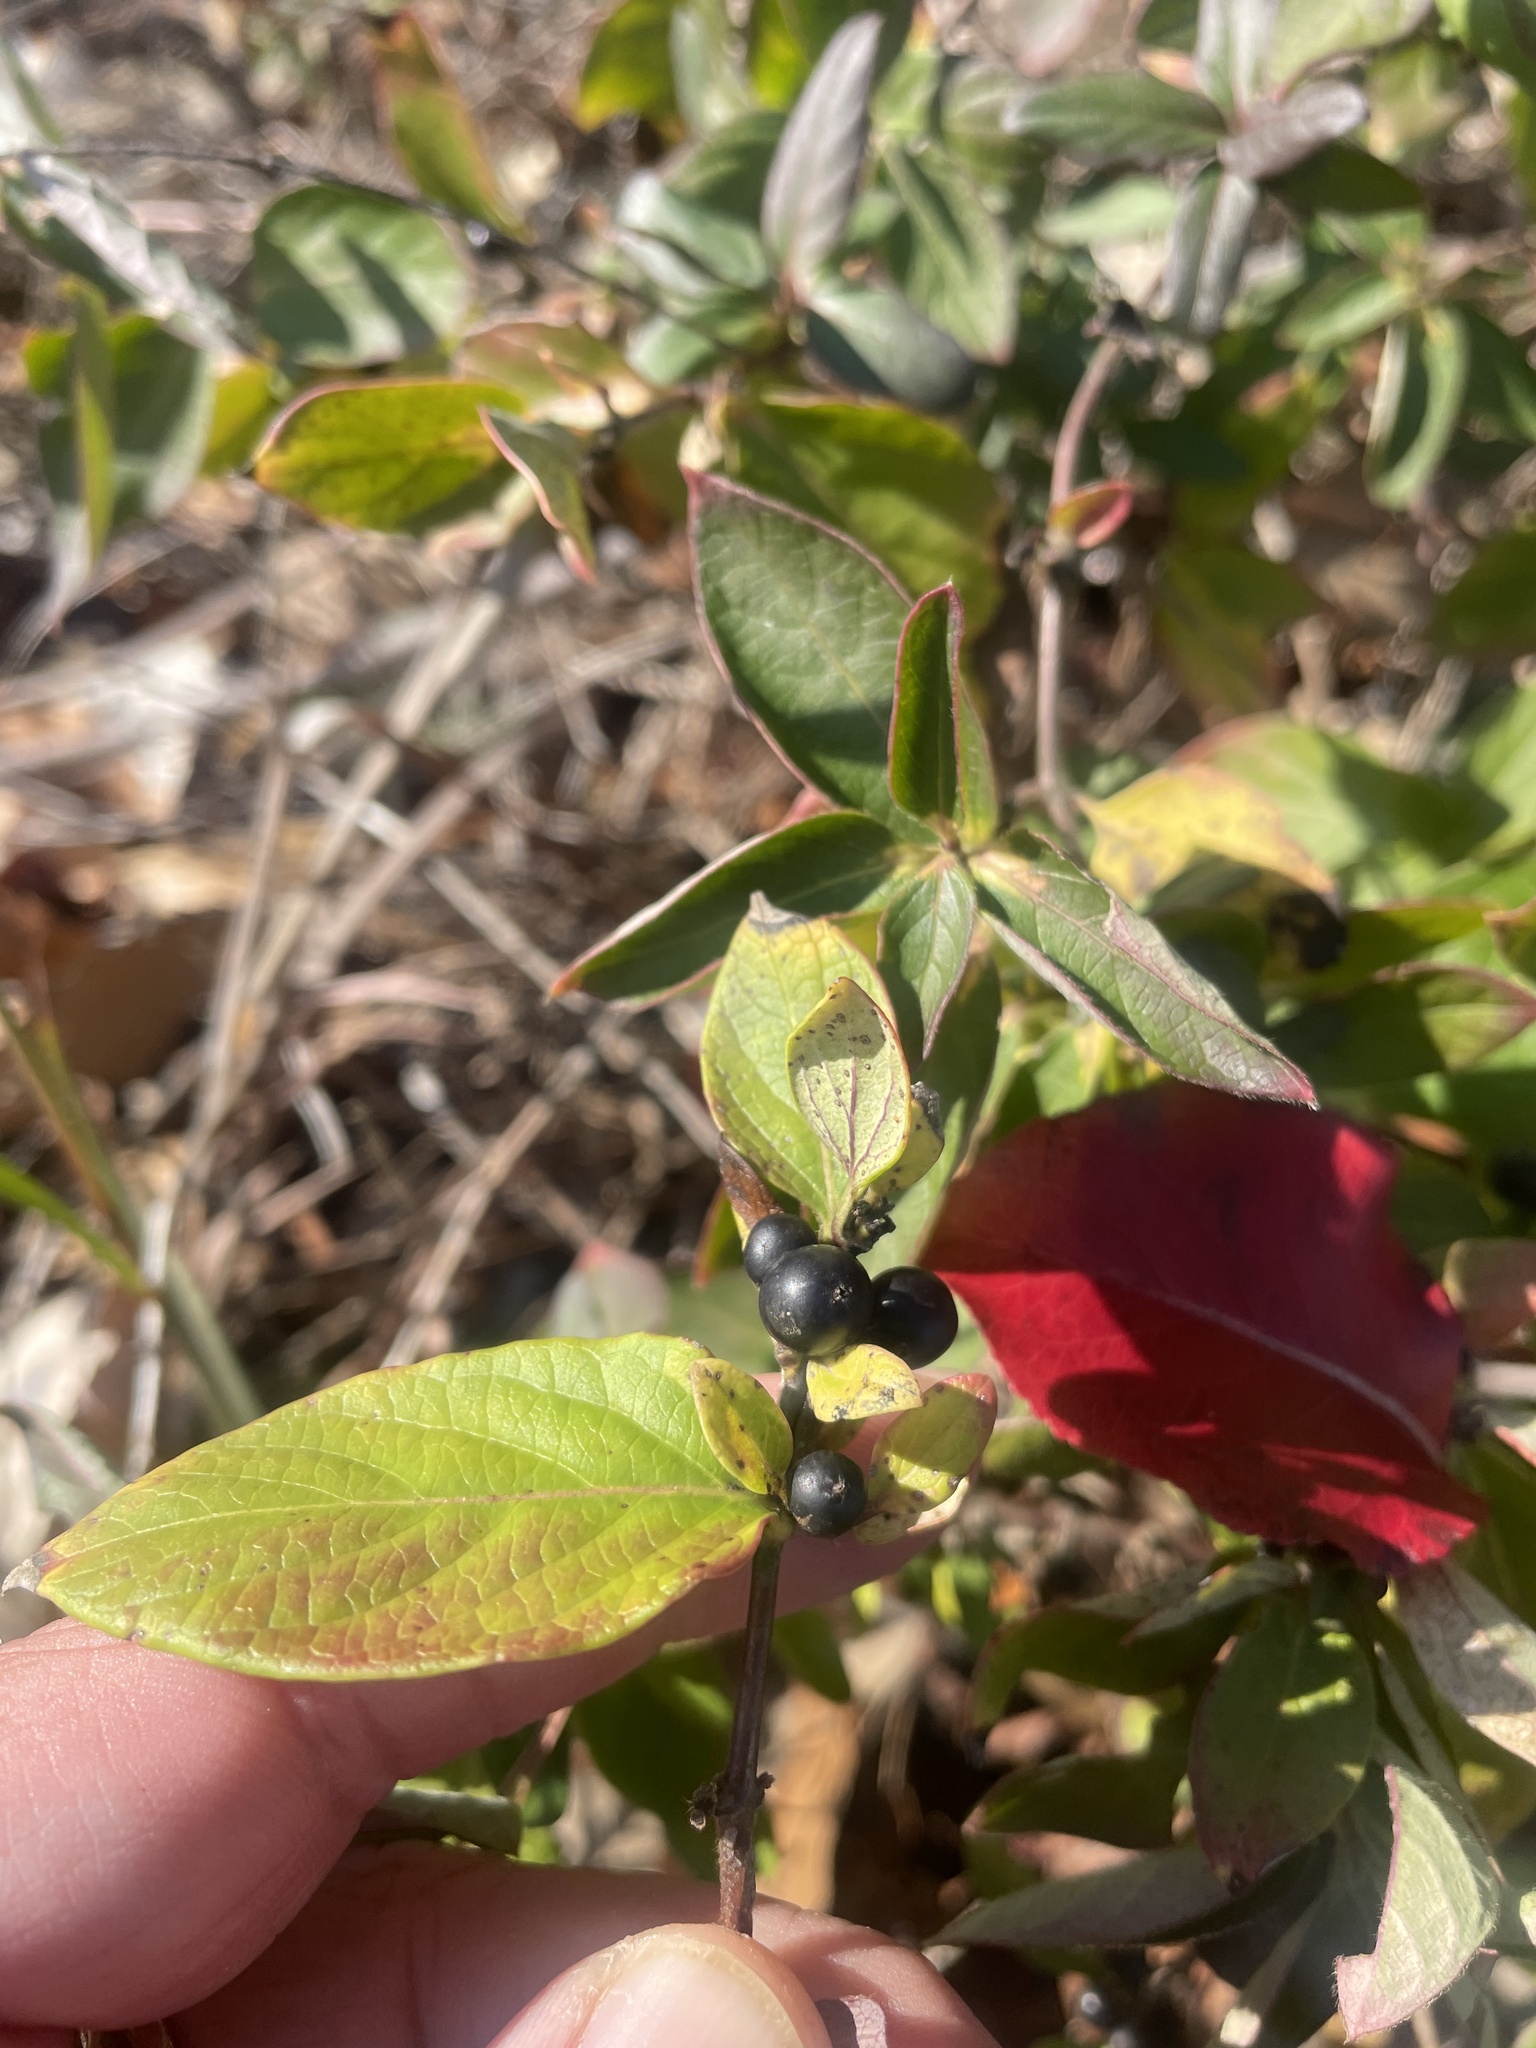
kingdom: Plantae
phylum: Tracheophyta
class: Magnoliopsida
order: Dipsacales
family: Caprifoliaceae
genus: Lonicera
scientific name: Lonicera japonica
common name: Japanese honeysuckle
